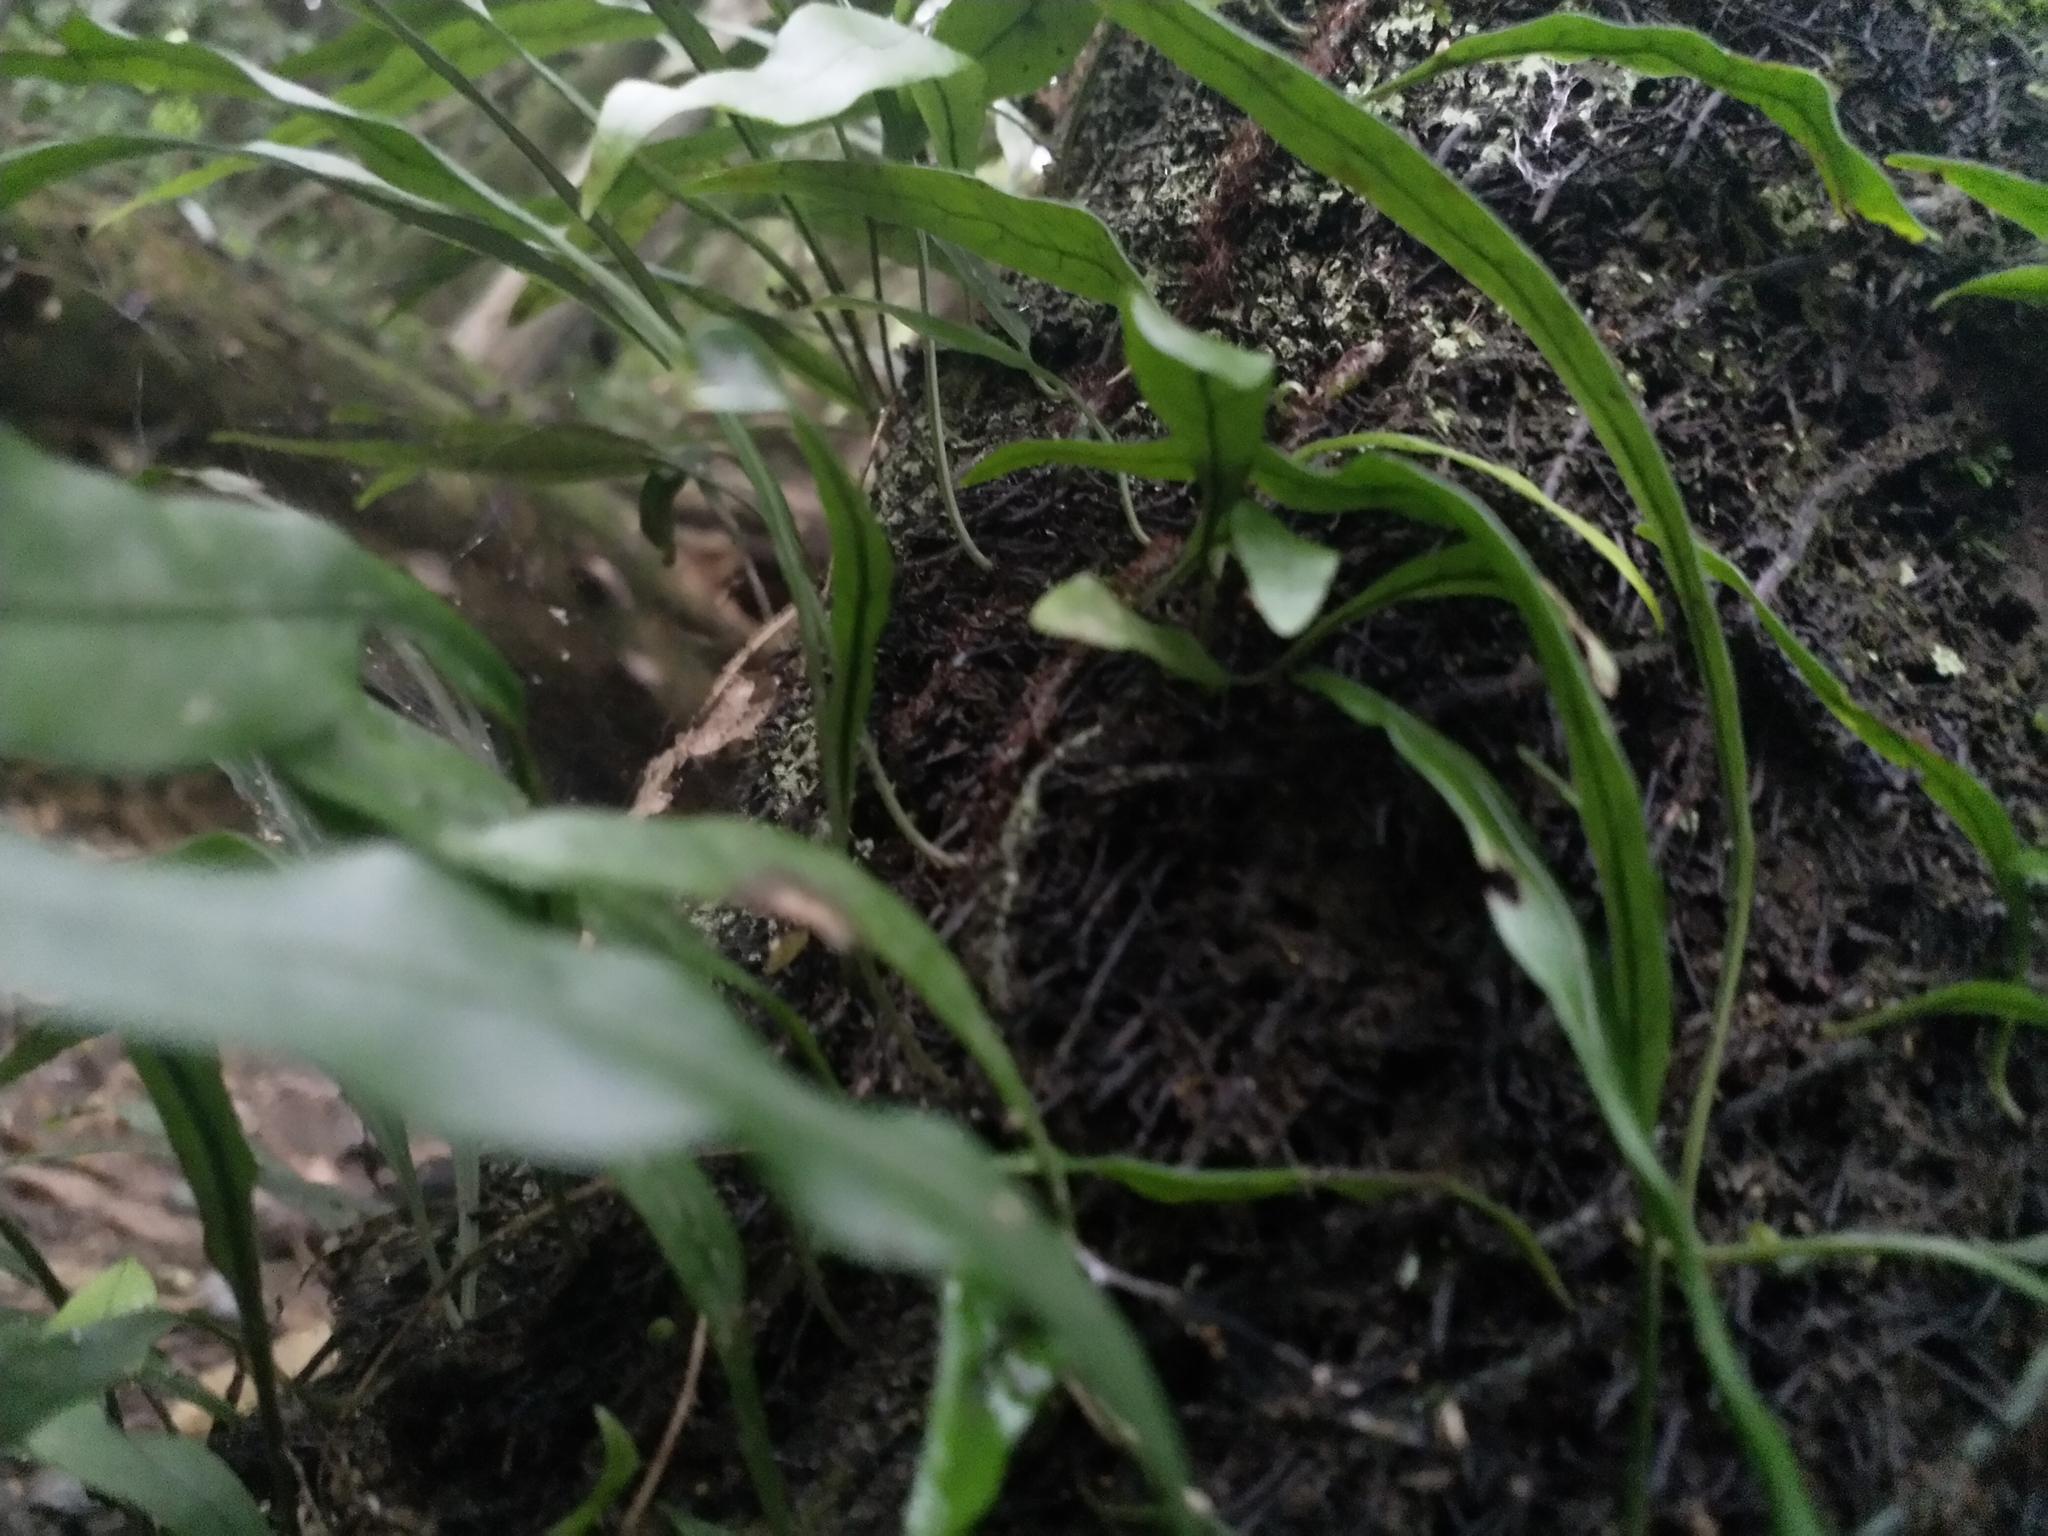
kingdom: Plantae
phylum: Tracheophyta
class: Polypodiopsida
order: Polypodiales
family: Polypodiaceae
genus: Lecanopteris
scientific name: Lecanopteris scandens
